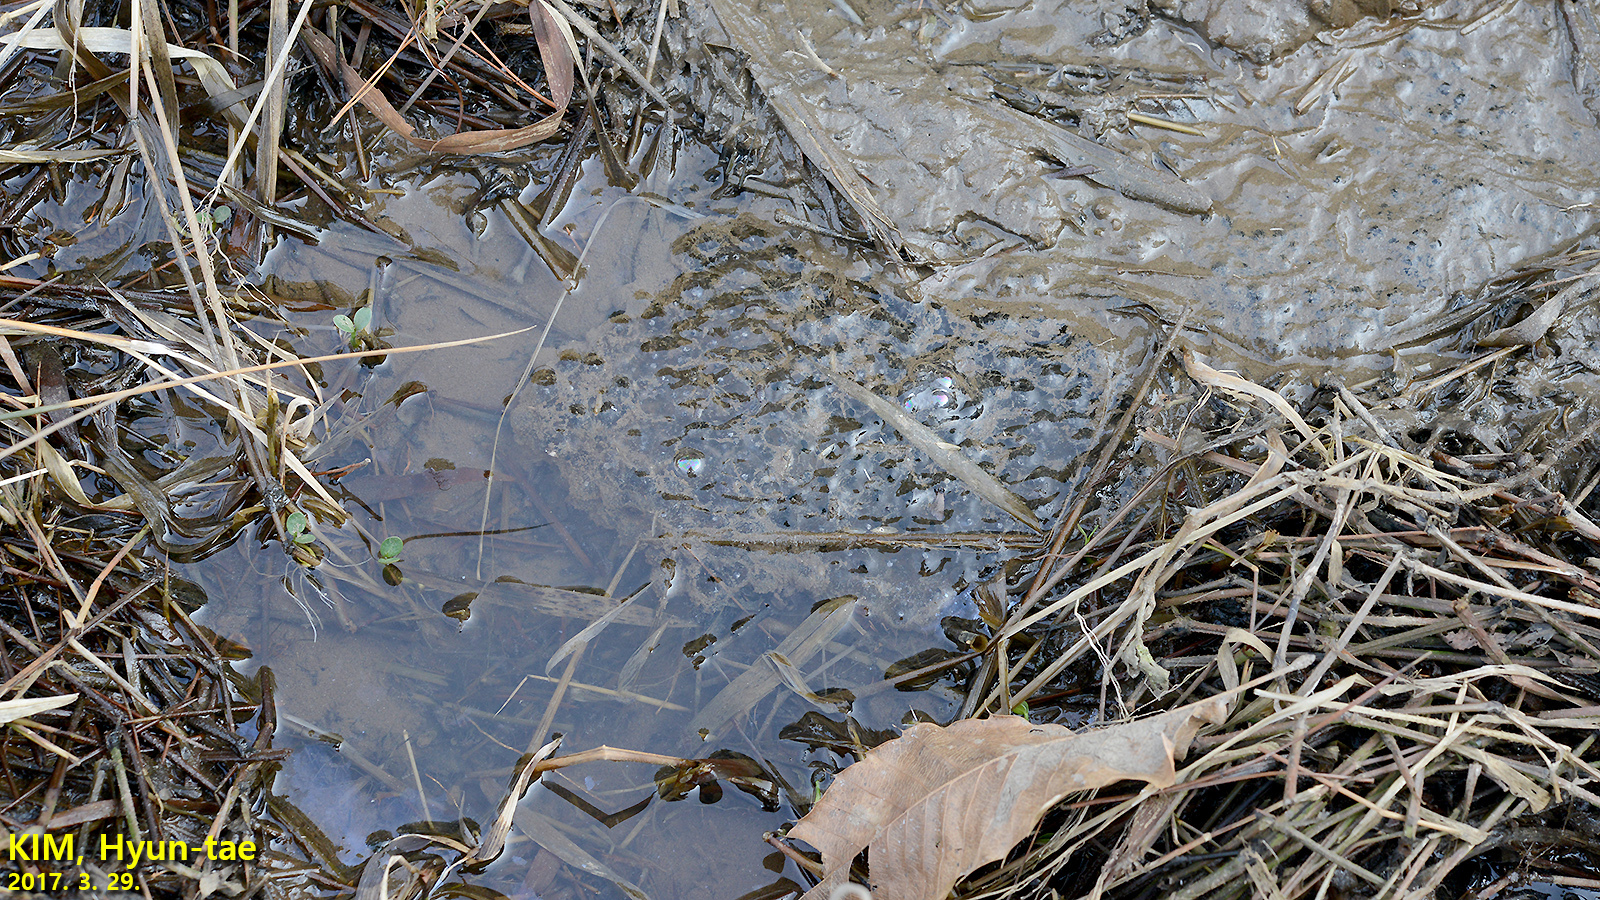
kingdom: Animalia
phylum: Chordata
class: Amphibia
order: Anura
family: Ranidae
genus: Rana
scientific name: Rana uenoi
